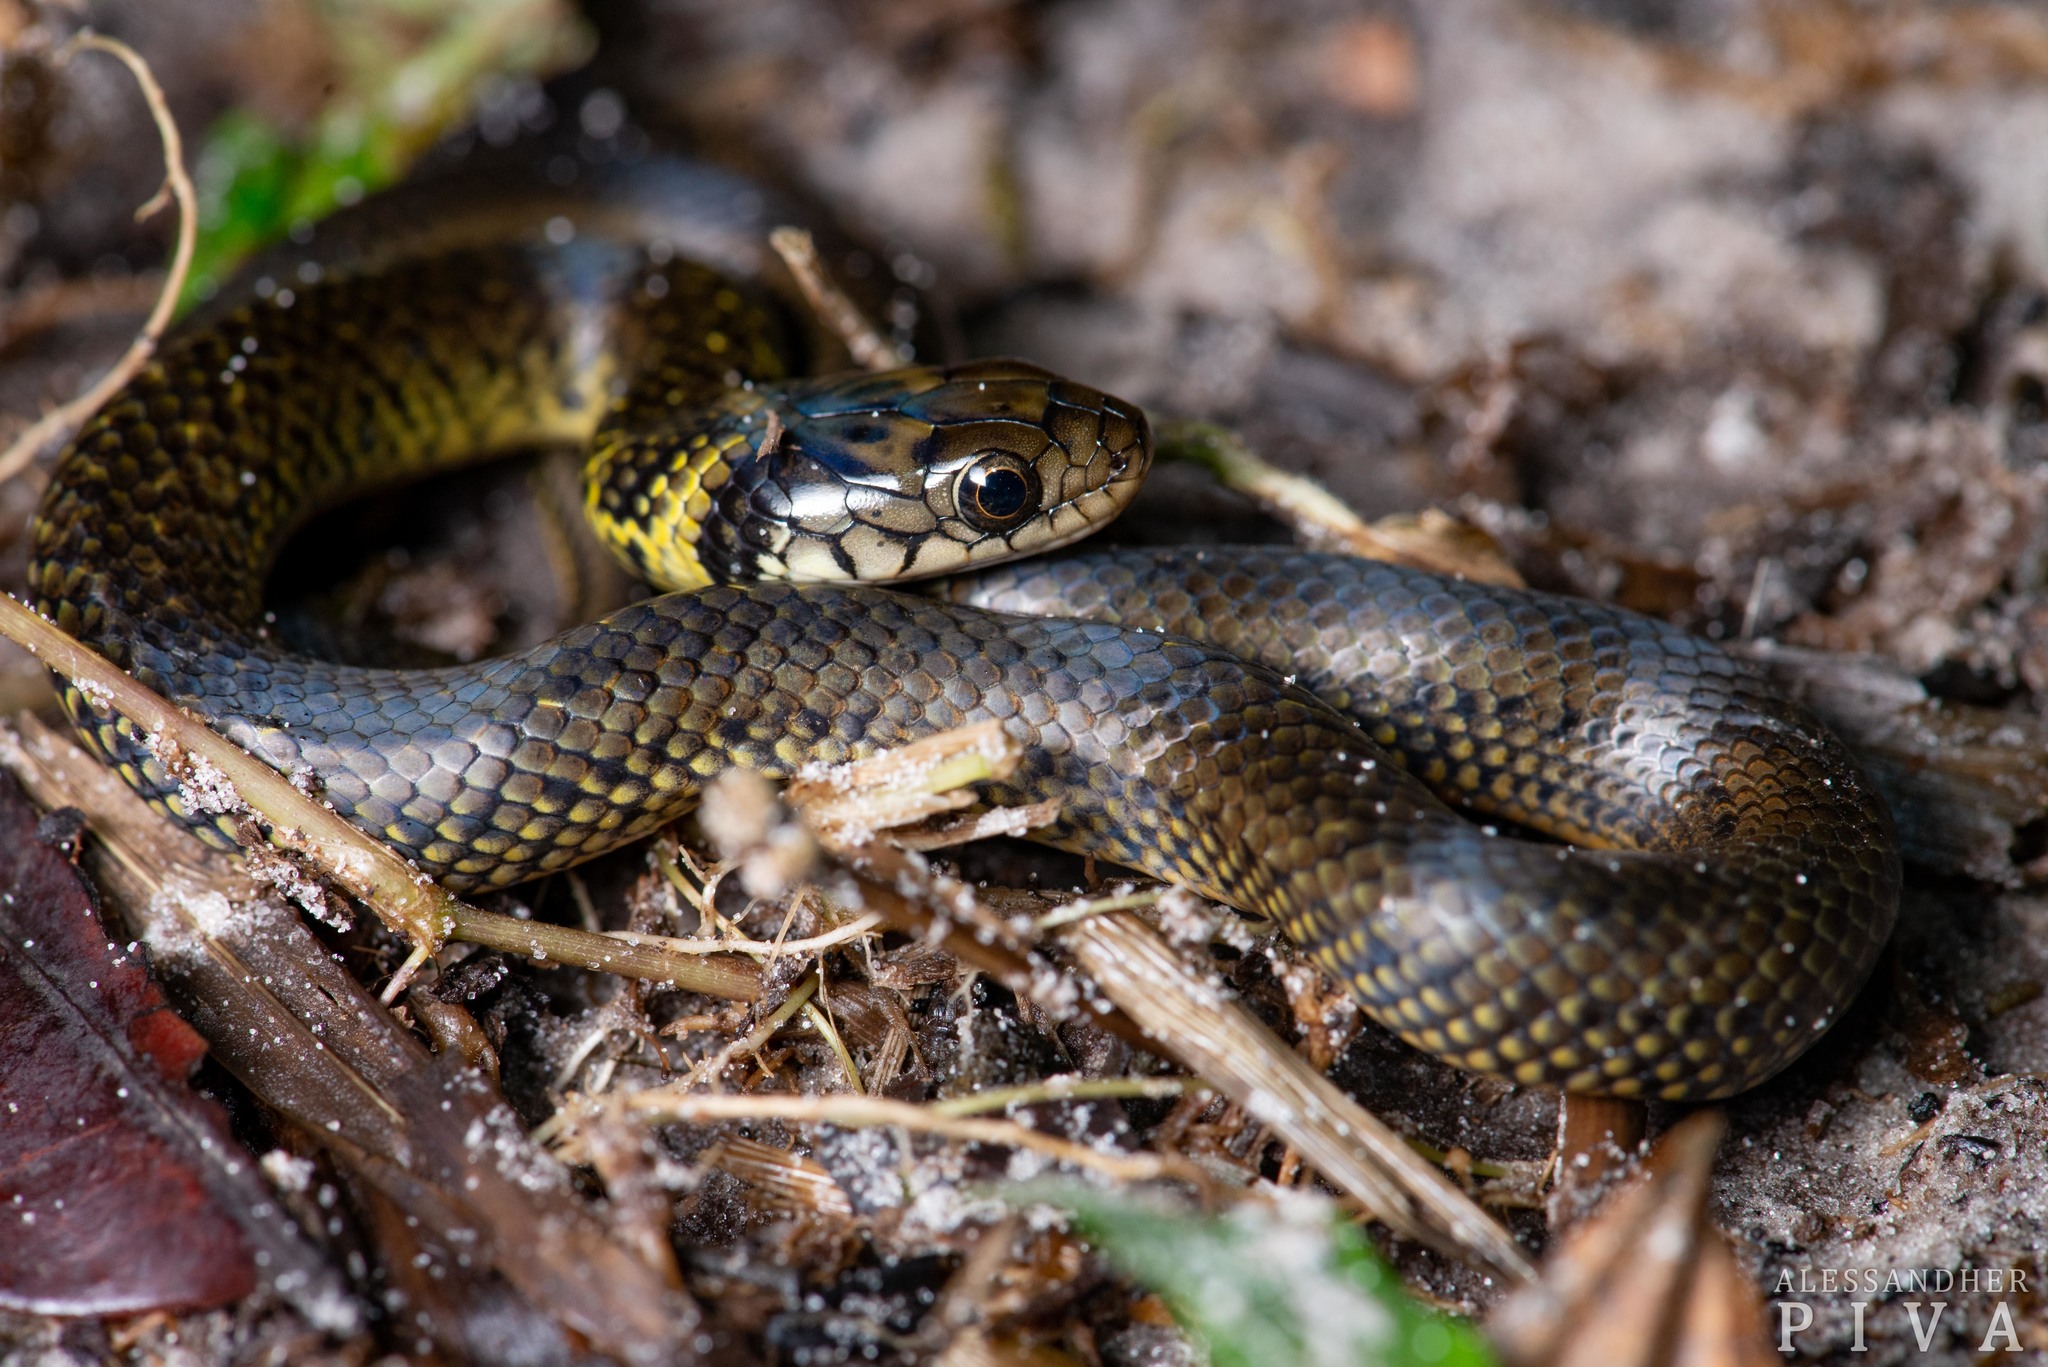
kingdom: Animalia
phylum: Chordata
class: Squamata
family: Colubridae
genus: Erythrolamprus
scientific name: Erythrolamprus miliaris
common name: Military ground snake
